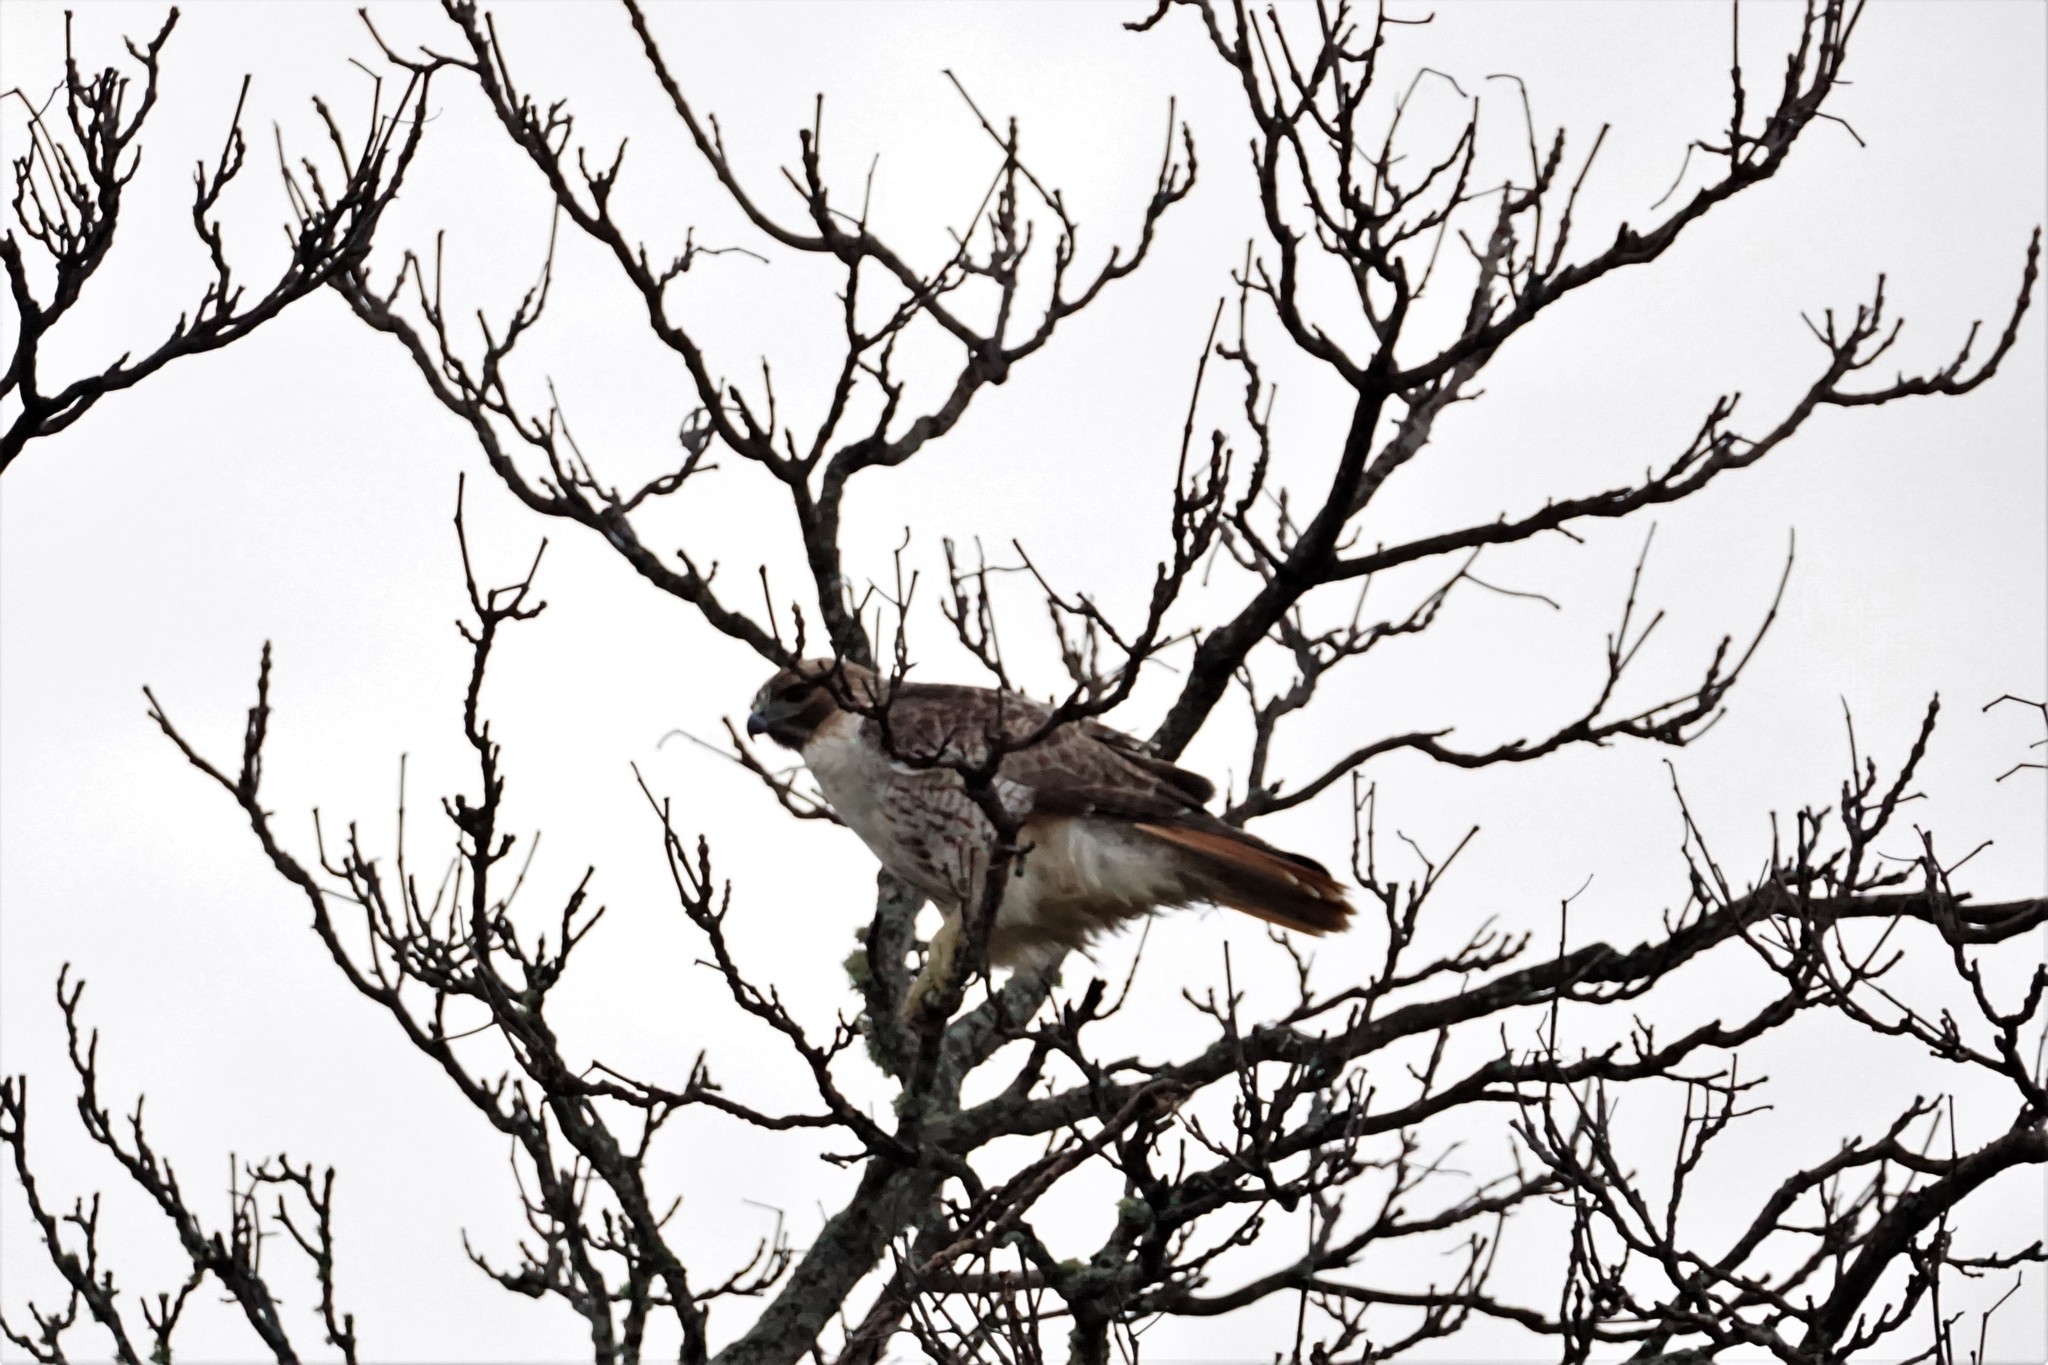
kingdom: Animalia
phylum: Chordata
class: Aves
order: Accipitriformes
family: Accipitridae
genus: Buteo
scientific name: Buteo jamaicensis
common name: Red-tailed hawk
